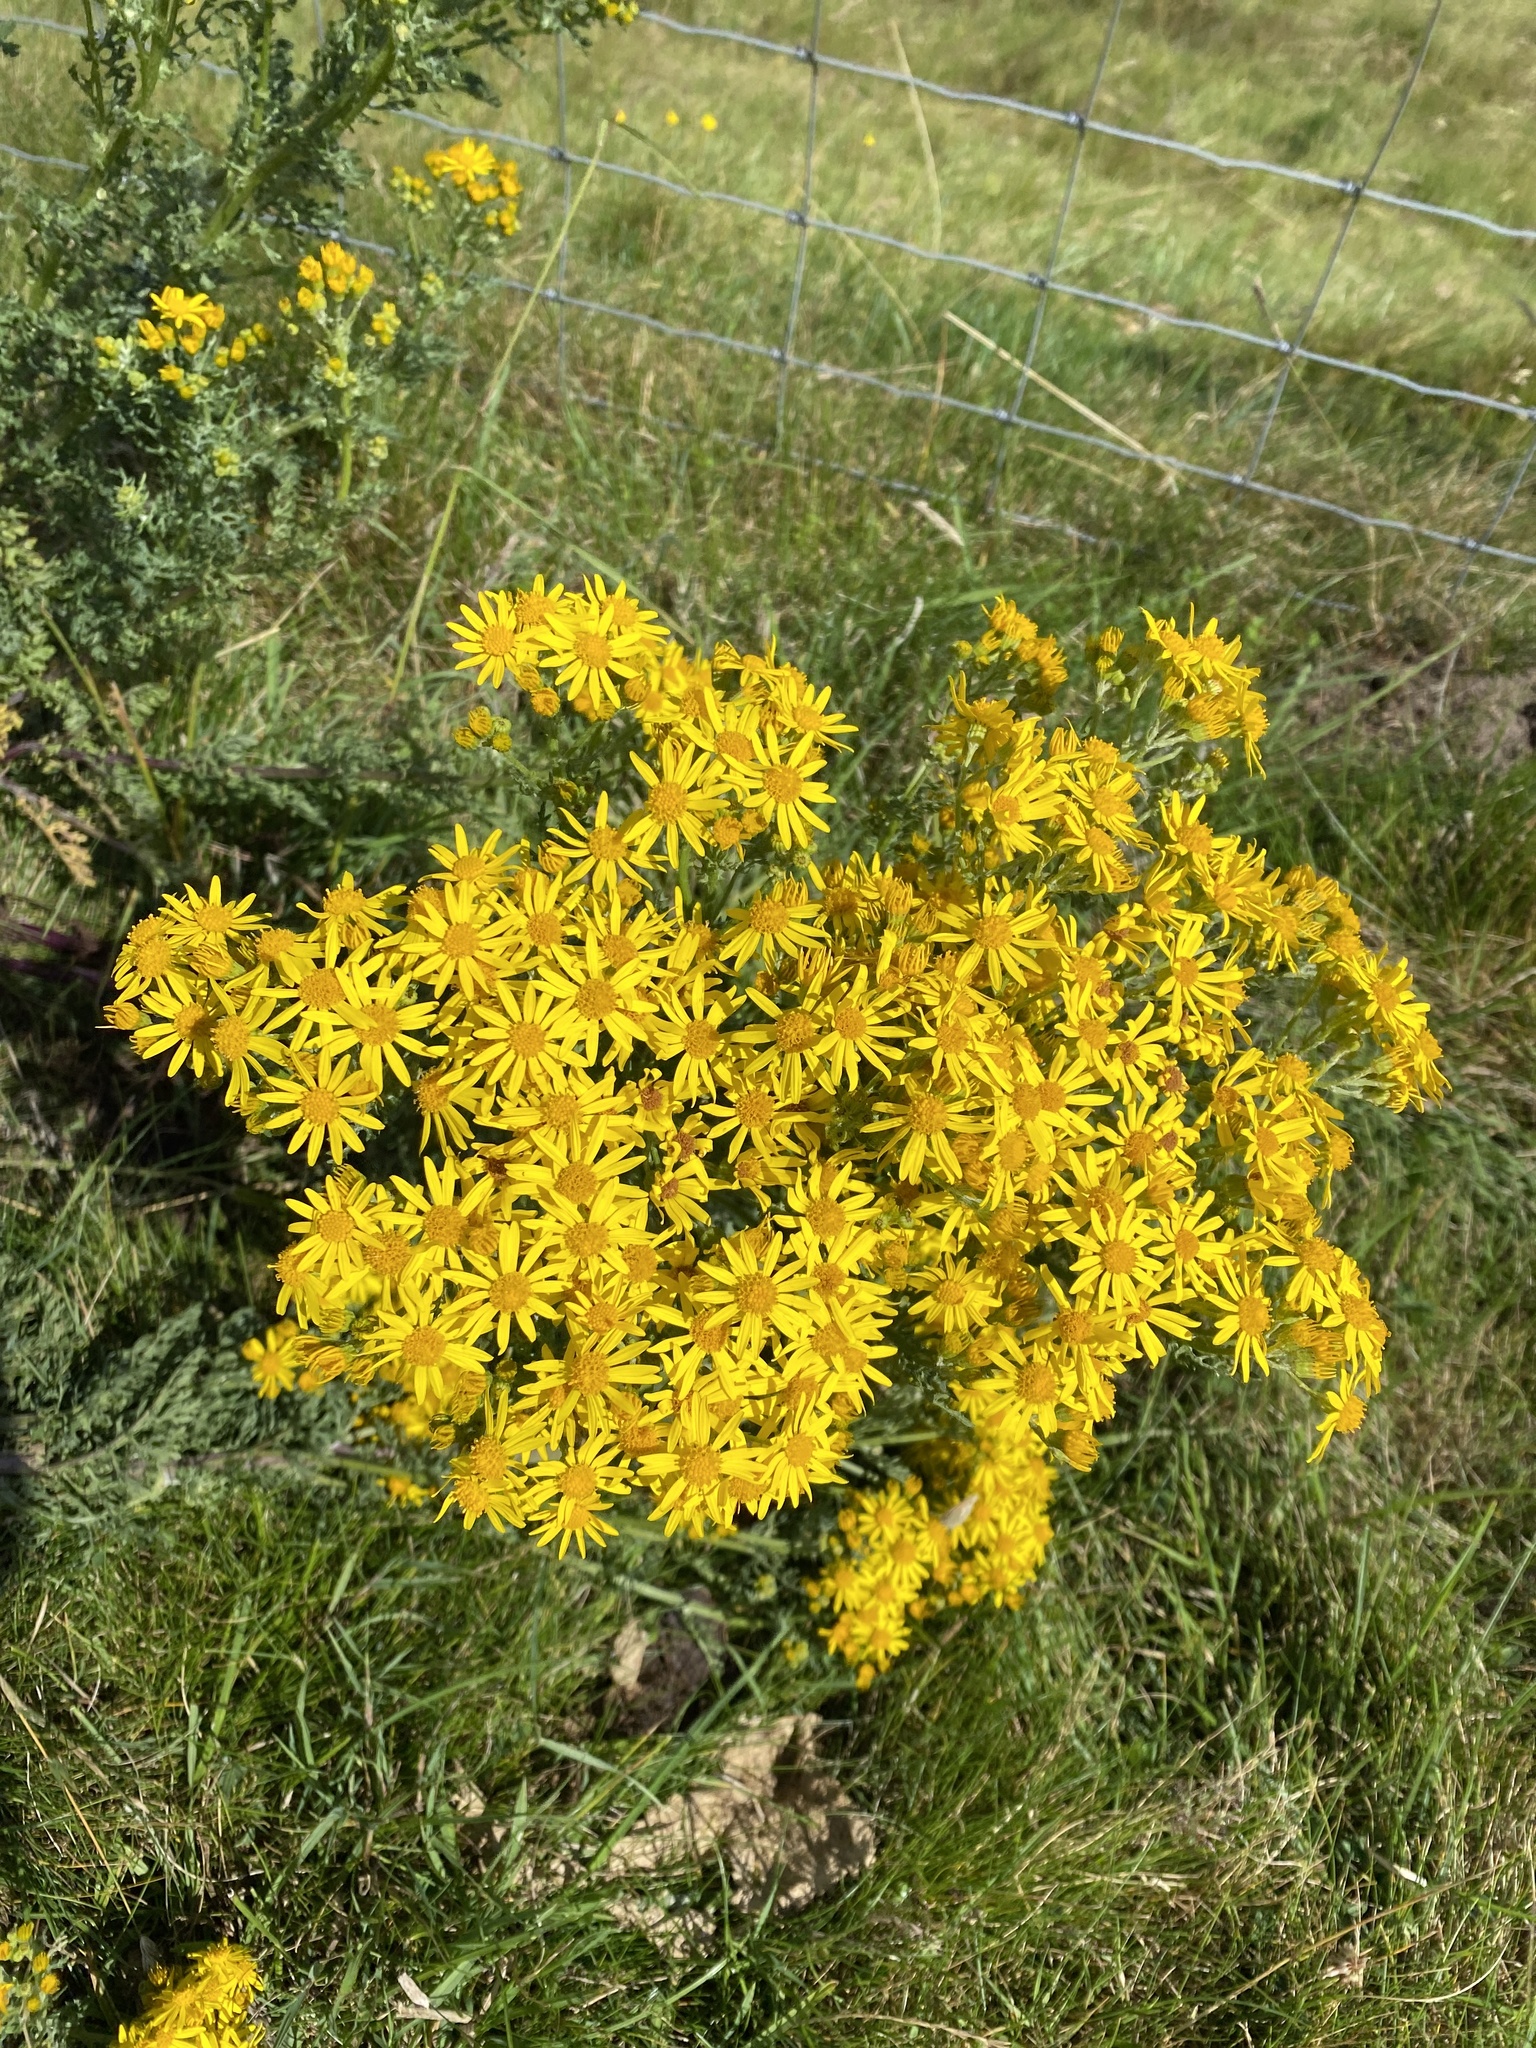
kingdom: Plantae
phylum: Tracheophyta
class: Magnoliopsida
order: Asterales
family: Asteraceae
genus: Jacobaea
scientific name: Jacobaea vulgaris
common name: Stinking willie
